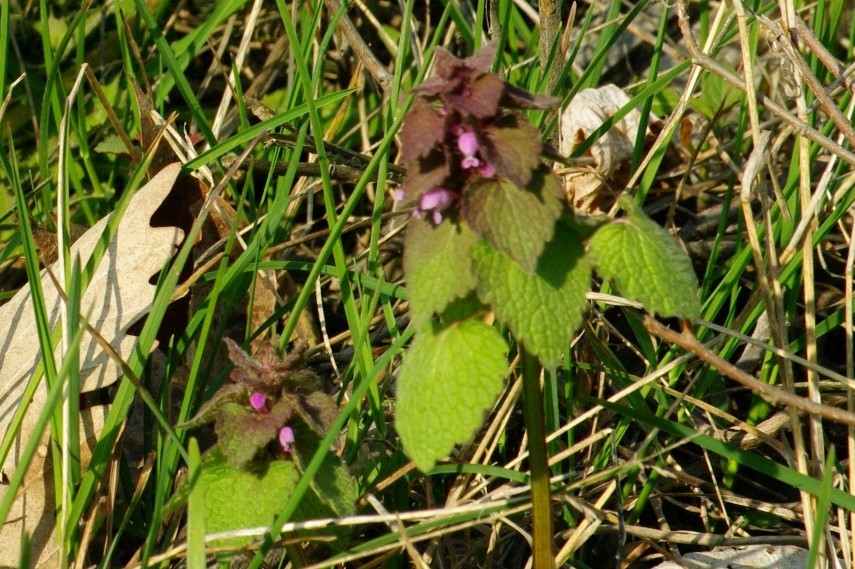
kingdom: Plantae
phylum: Tracheophyta
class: Magnoliopsida
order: Lamiales
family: Lamiaceae
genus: Lamium
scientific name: Lamium purpureum
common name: Red dead-nettle
